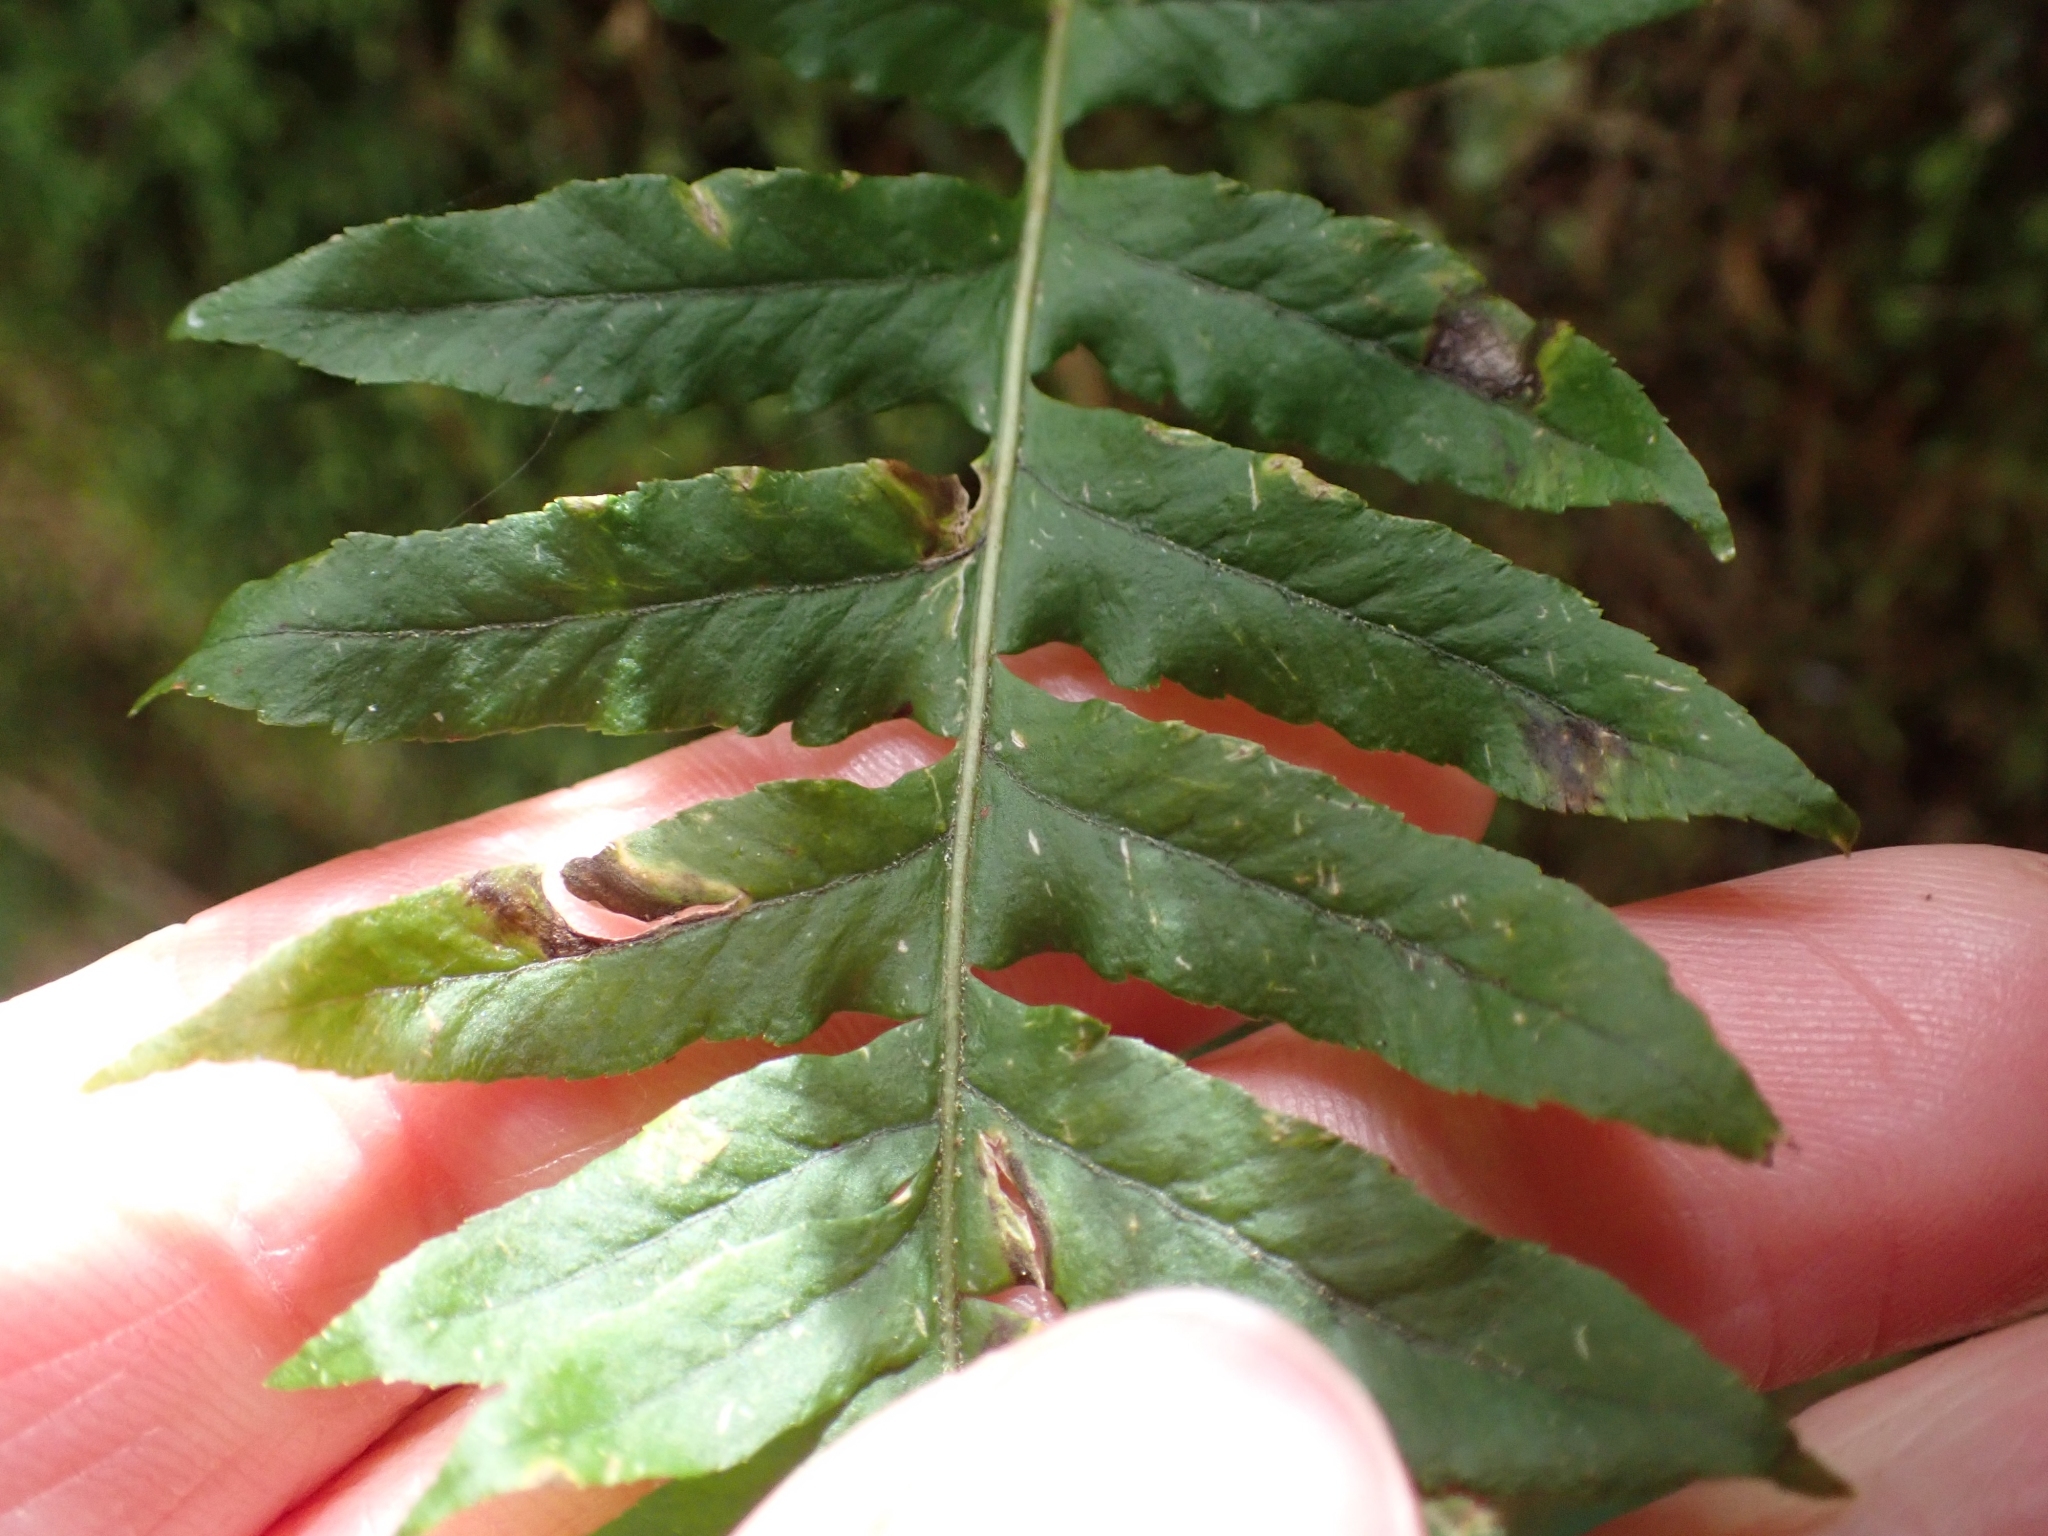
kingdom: Plantae
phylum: Tracheophyta
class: Polypodiopsida
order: Polypodiales
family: Polypodiaceae
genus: Polypodium
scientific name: Polypodium glycyrrhiza
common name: Licorice fern
